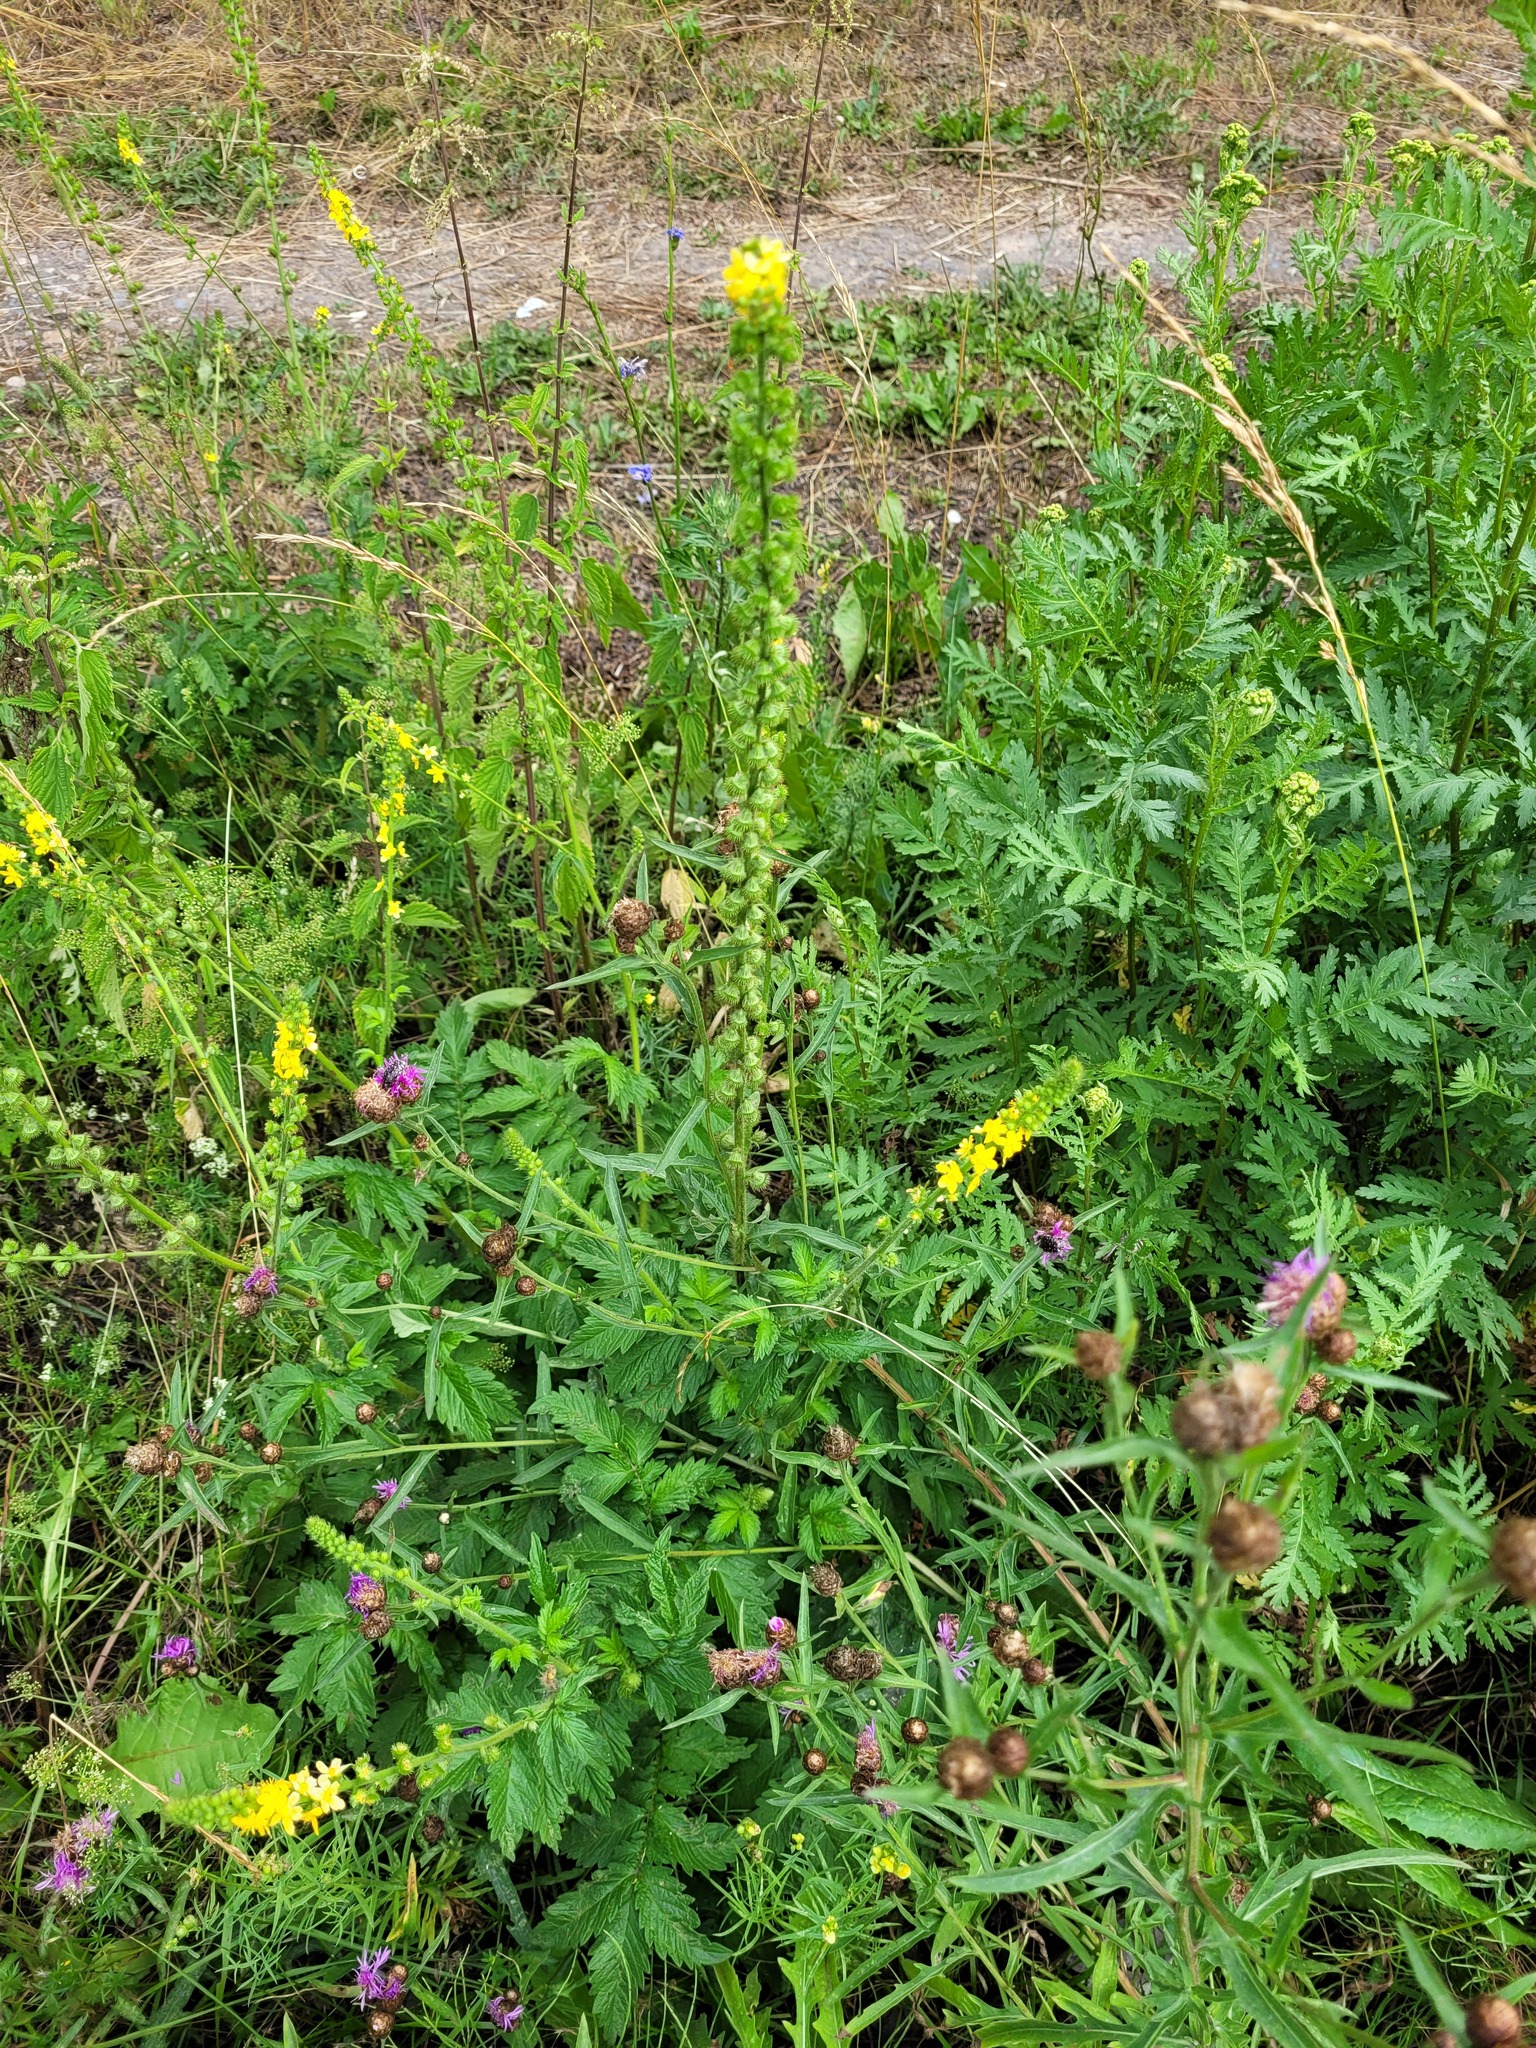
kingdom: Plantae
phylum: Tracheophyta
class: Magnoliopsida
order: Rosales
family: Rosaceae
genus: Agrimonia
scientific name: Agrimonia eupatoria
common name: Agrimony
